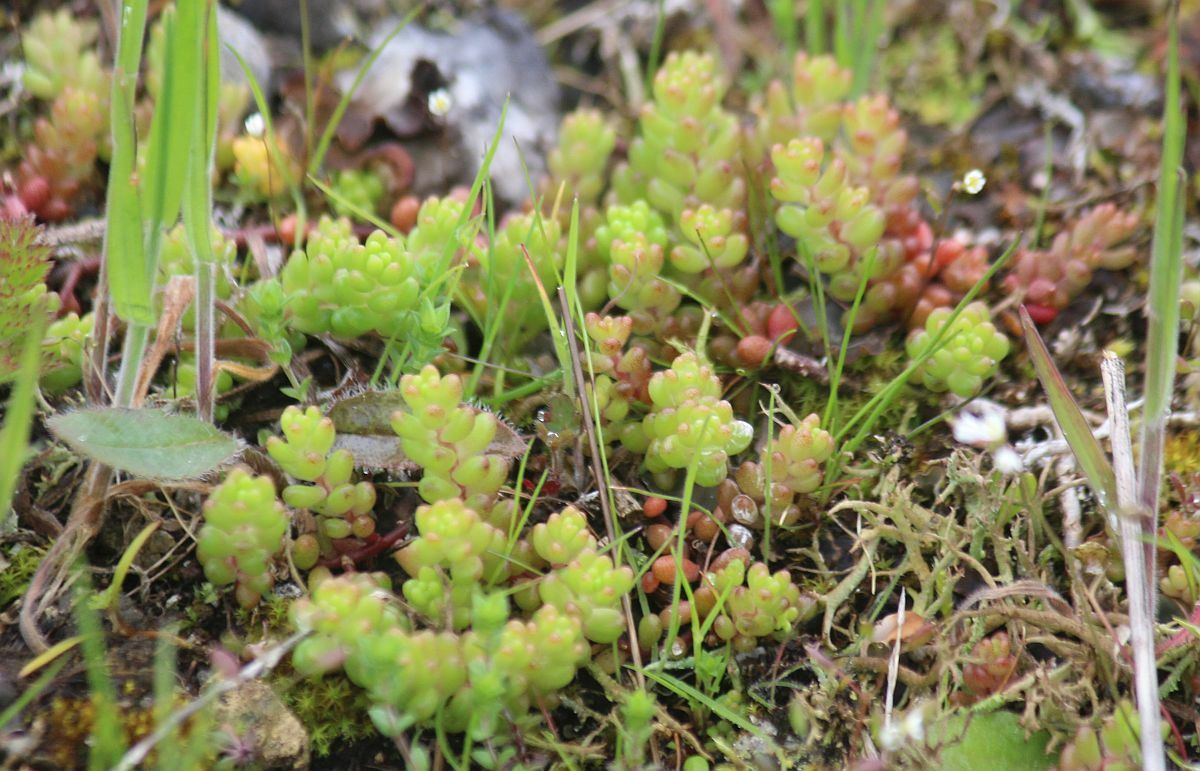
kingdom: Plantae
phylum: Tracheophyta
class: Magnoliopsida
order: Saxifragales
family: Crassulaceae
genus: Sedum
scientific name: Sedum album
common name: White stonecrop
